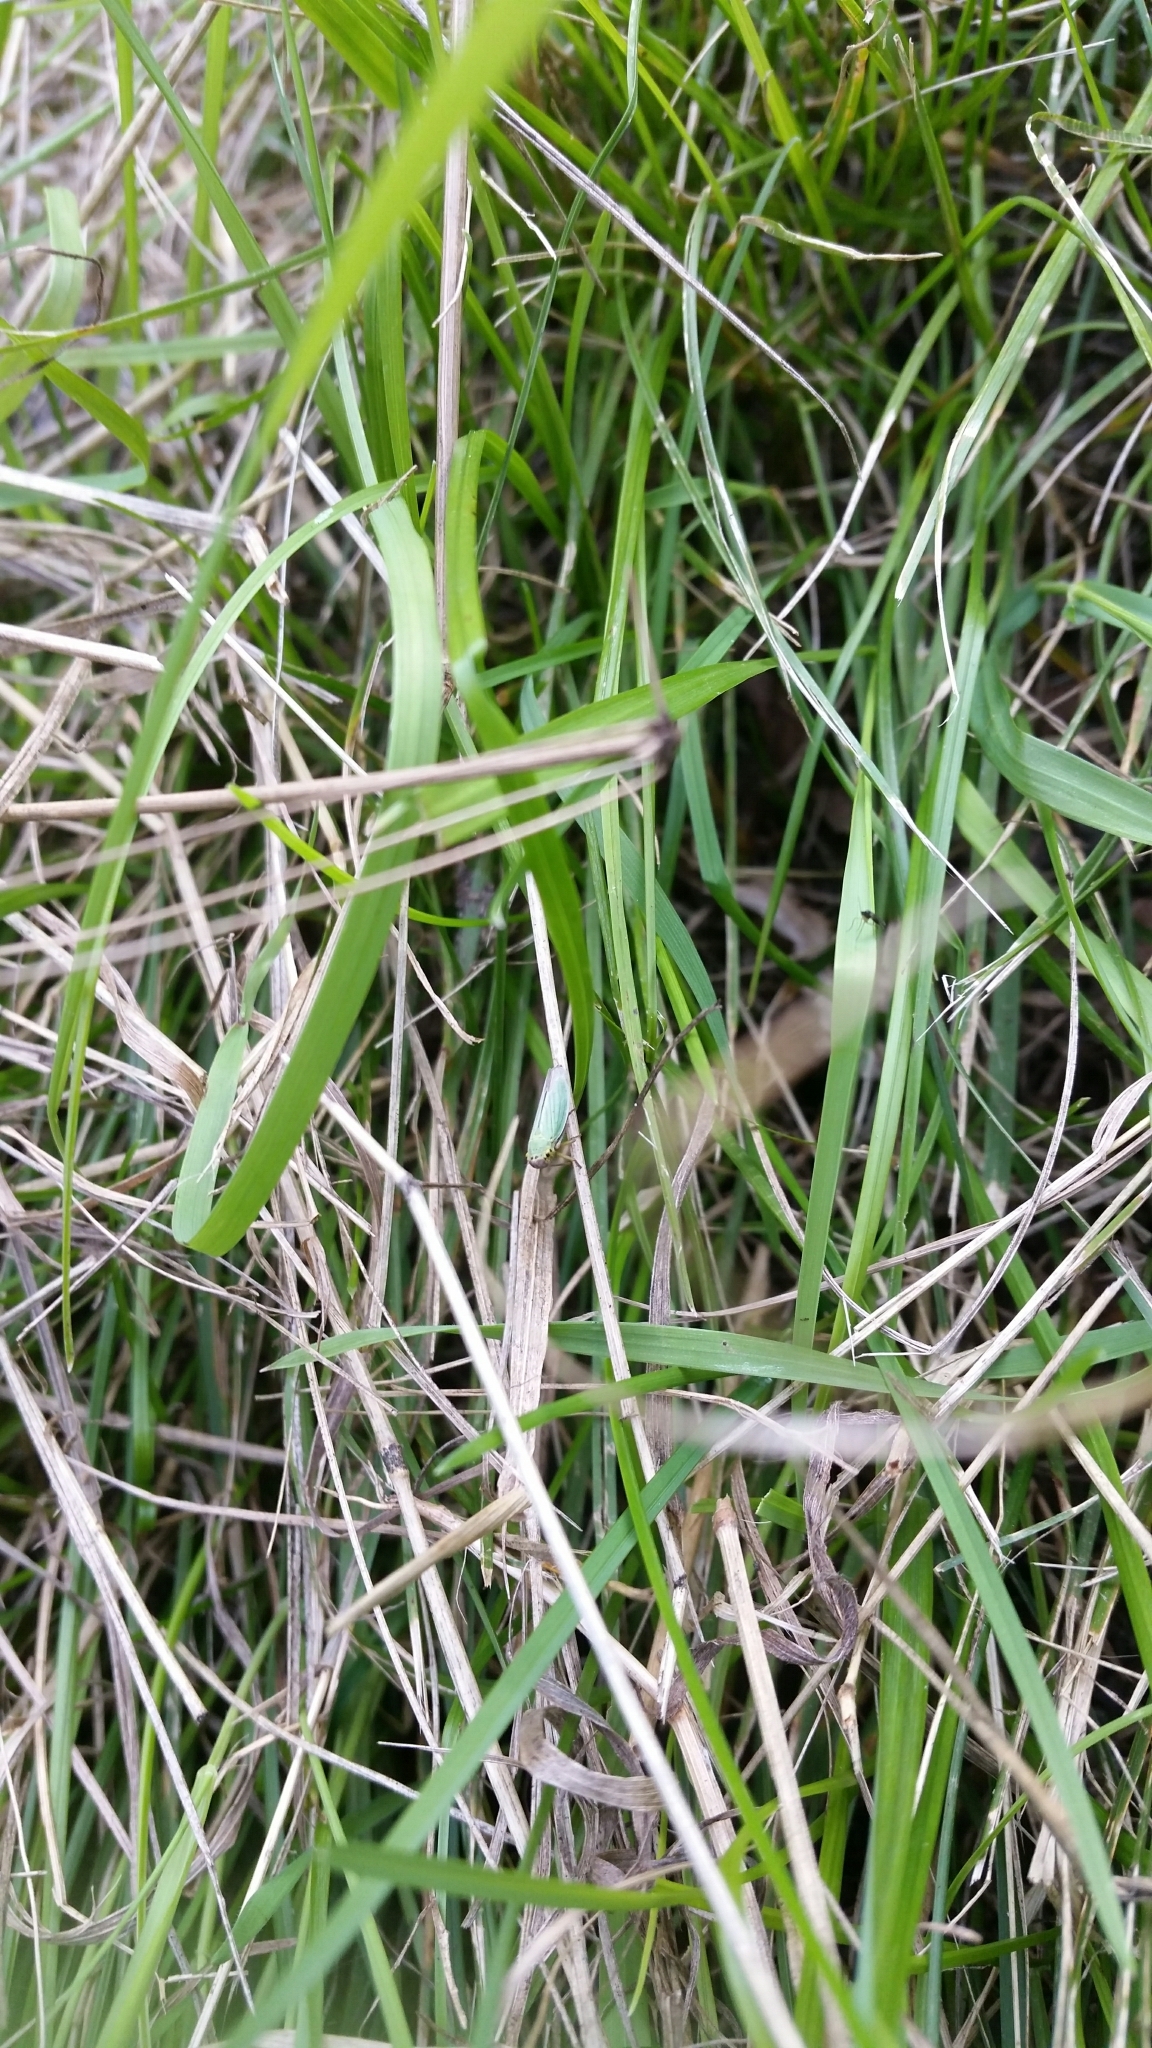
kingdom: Animalia
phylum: Arthropoda
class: Insecta
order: Hemiptera
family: Cicadellidae
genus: Cicadella
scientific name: Cicadella viridis
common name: Leafhopper
